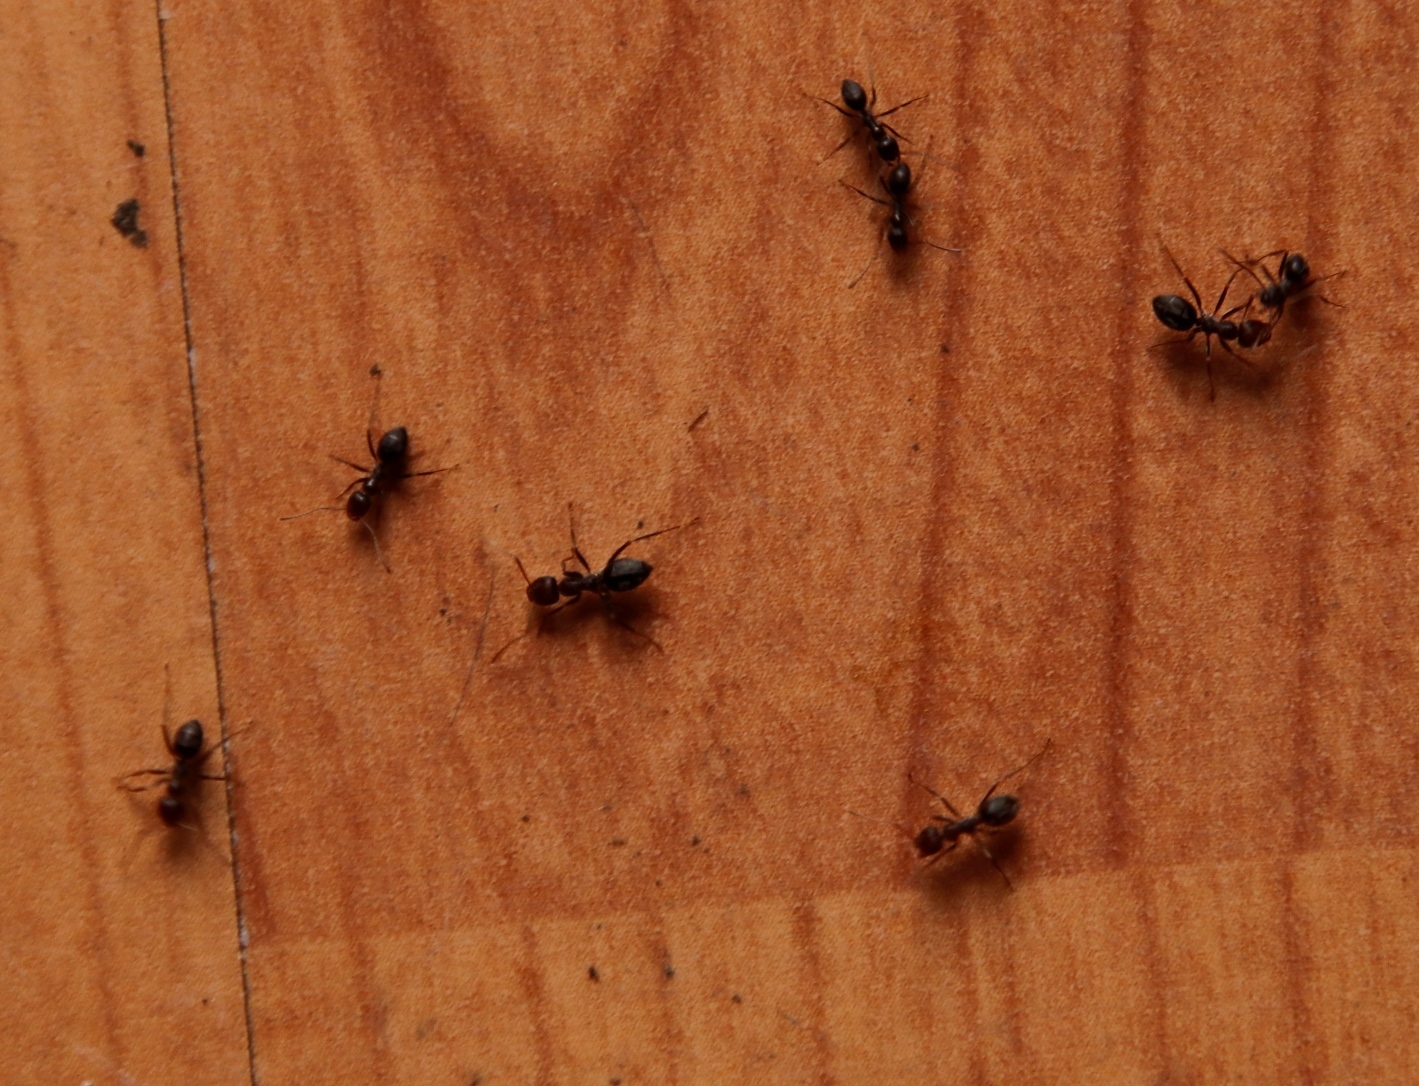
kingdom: Animalia
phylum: Arthropoda
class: Insecta
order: Hymenoptera
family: Formicidae
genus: Anoplolepis
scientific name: Anoplolepis steingroeveri
